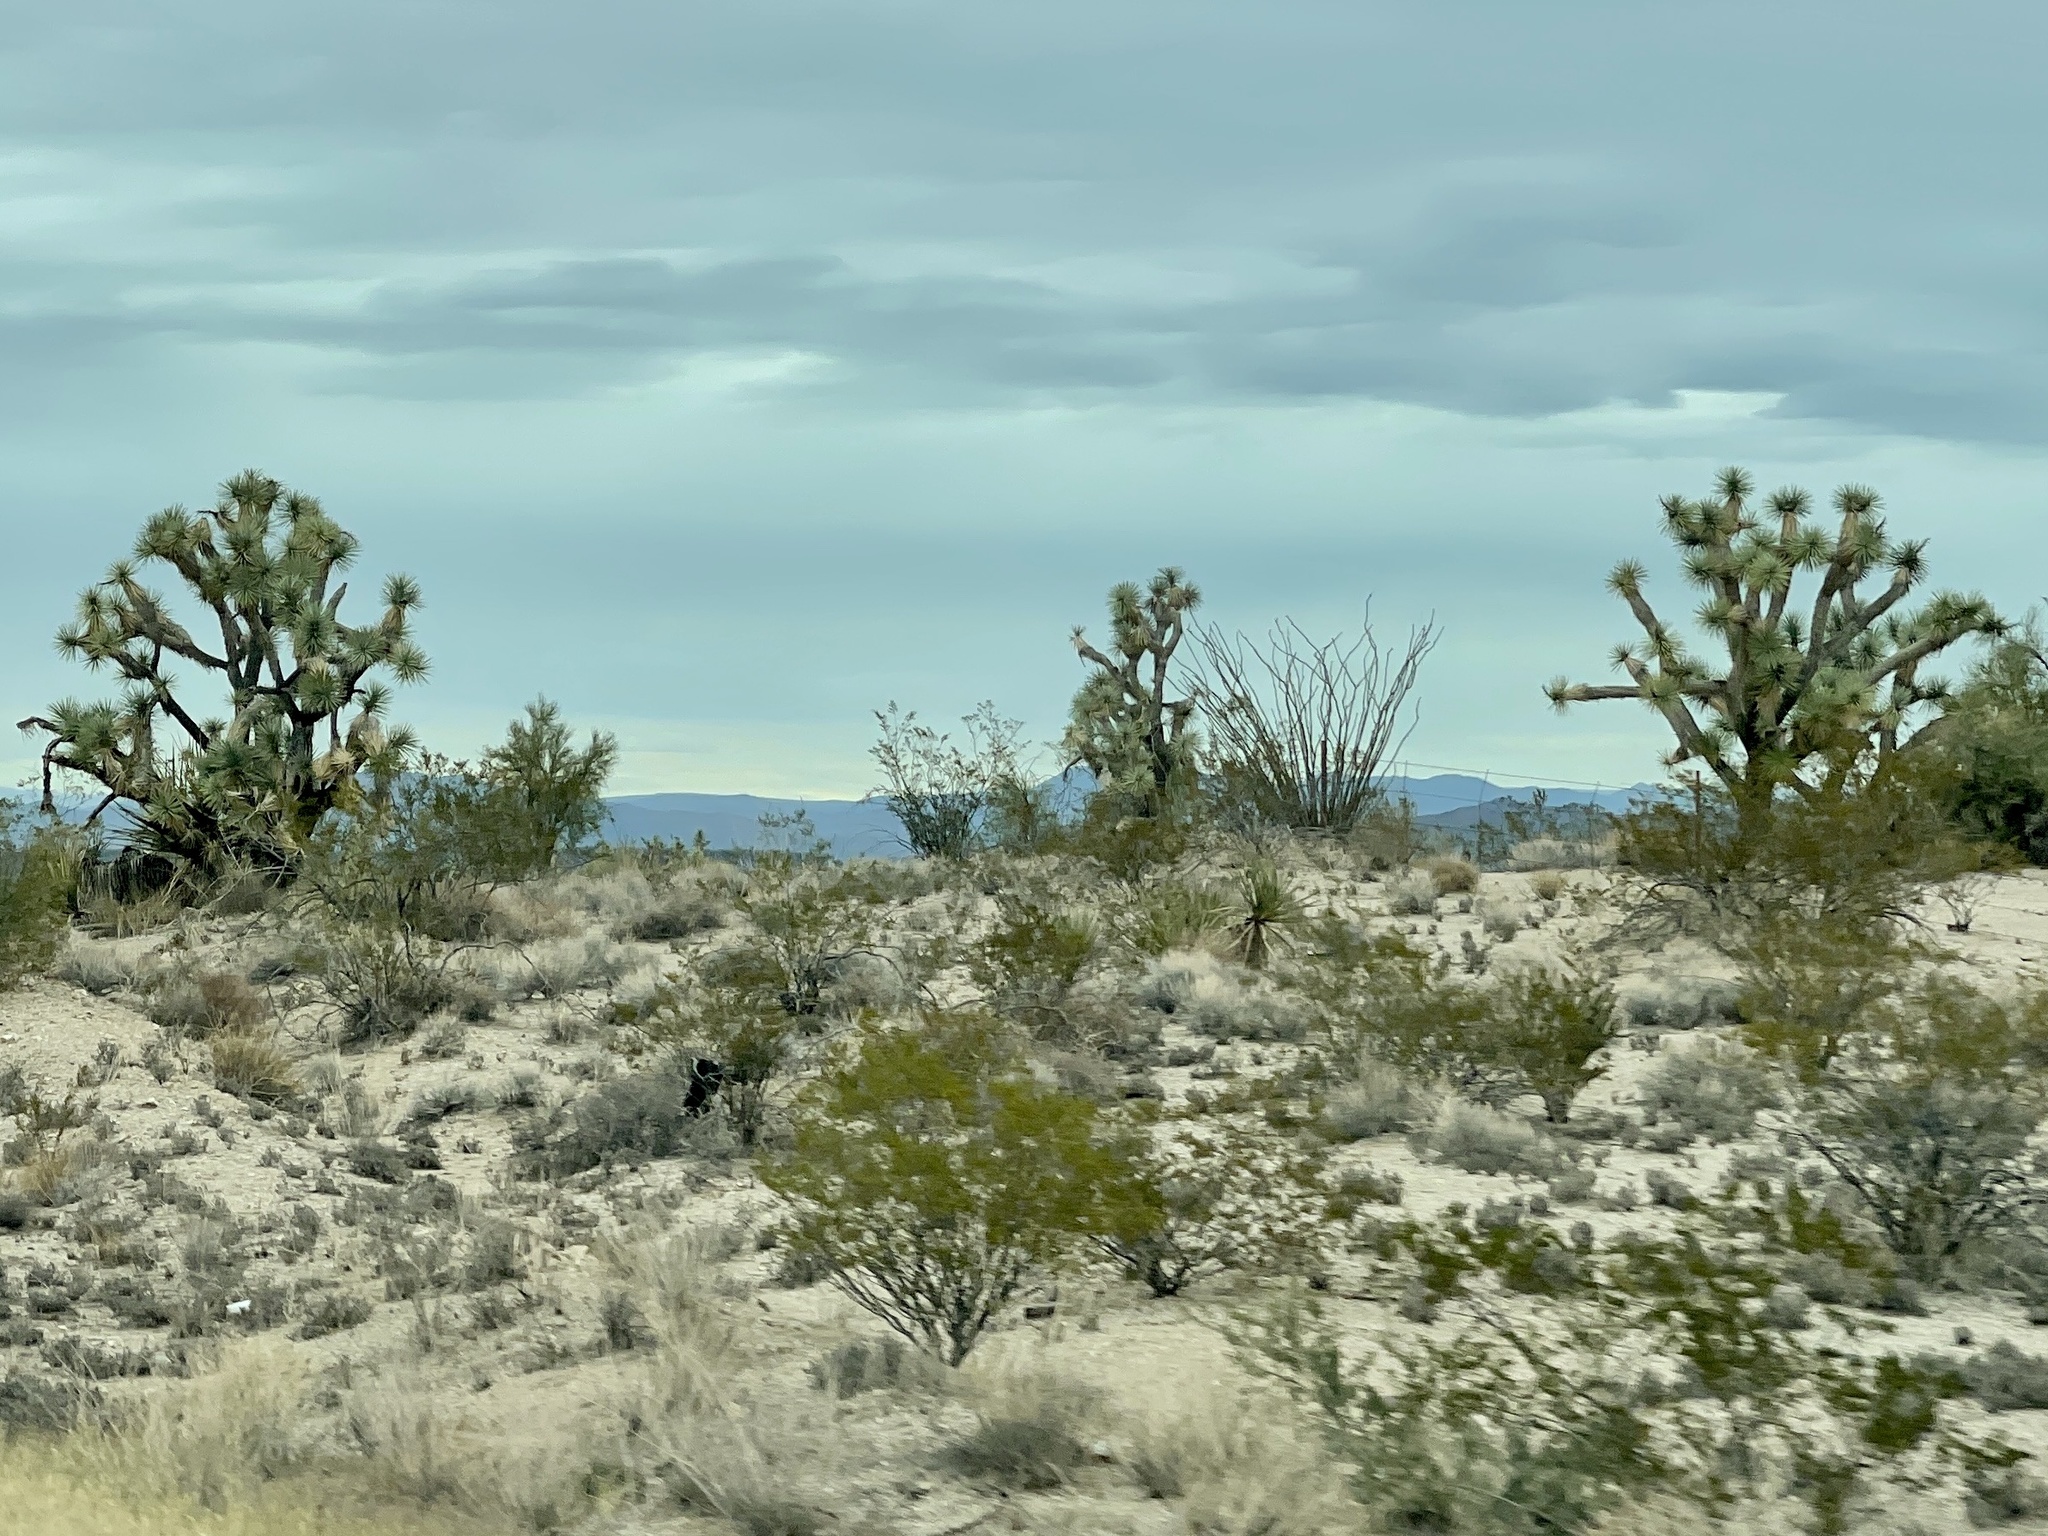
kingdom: Plantae
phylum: Tracheophyta
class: Liliopsida
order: Asparagales
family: Asparagaceae
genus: Yucca
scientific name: Yucca brevifolia
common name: Joshua tree
